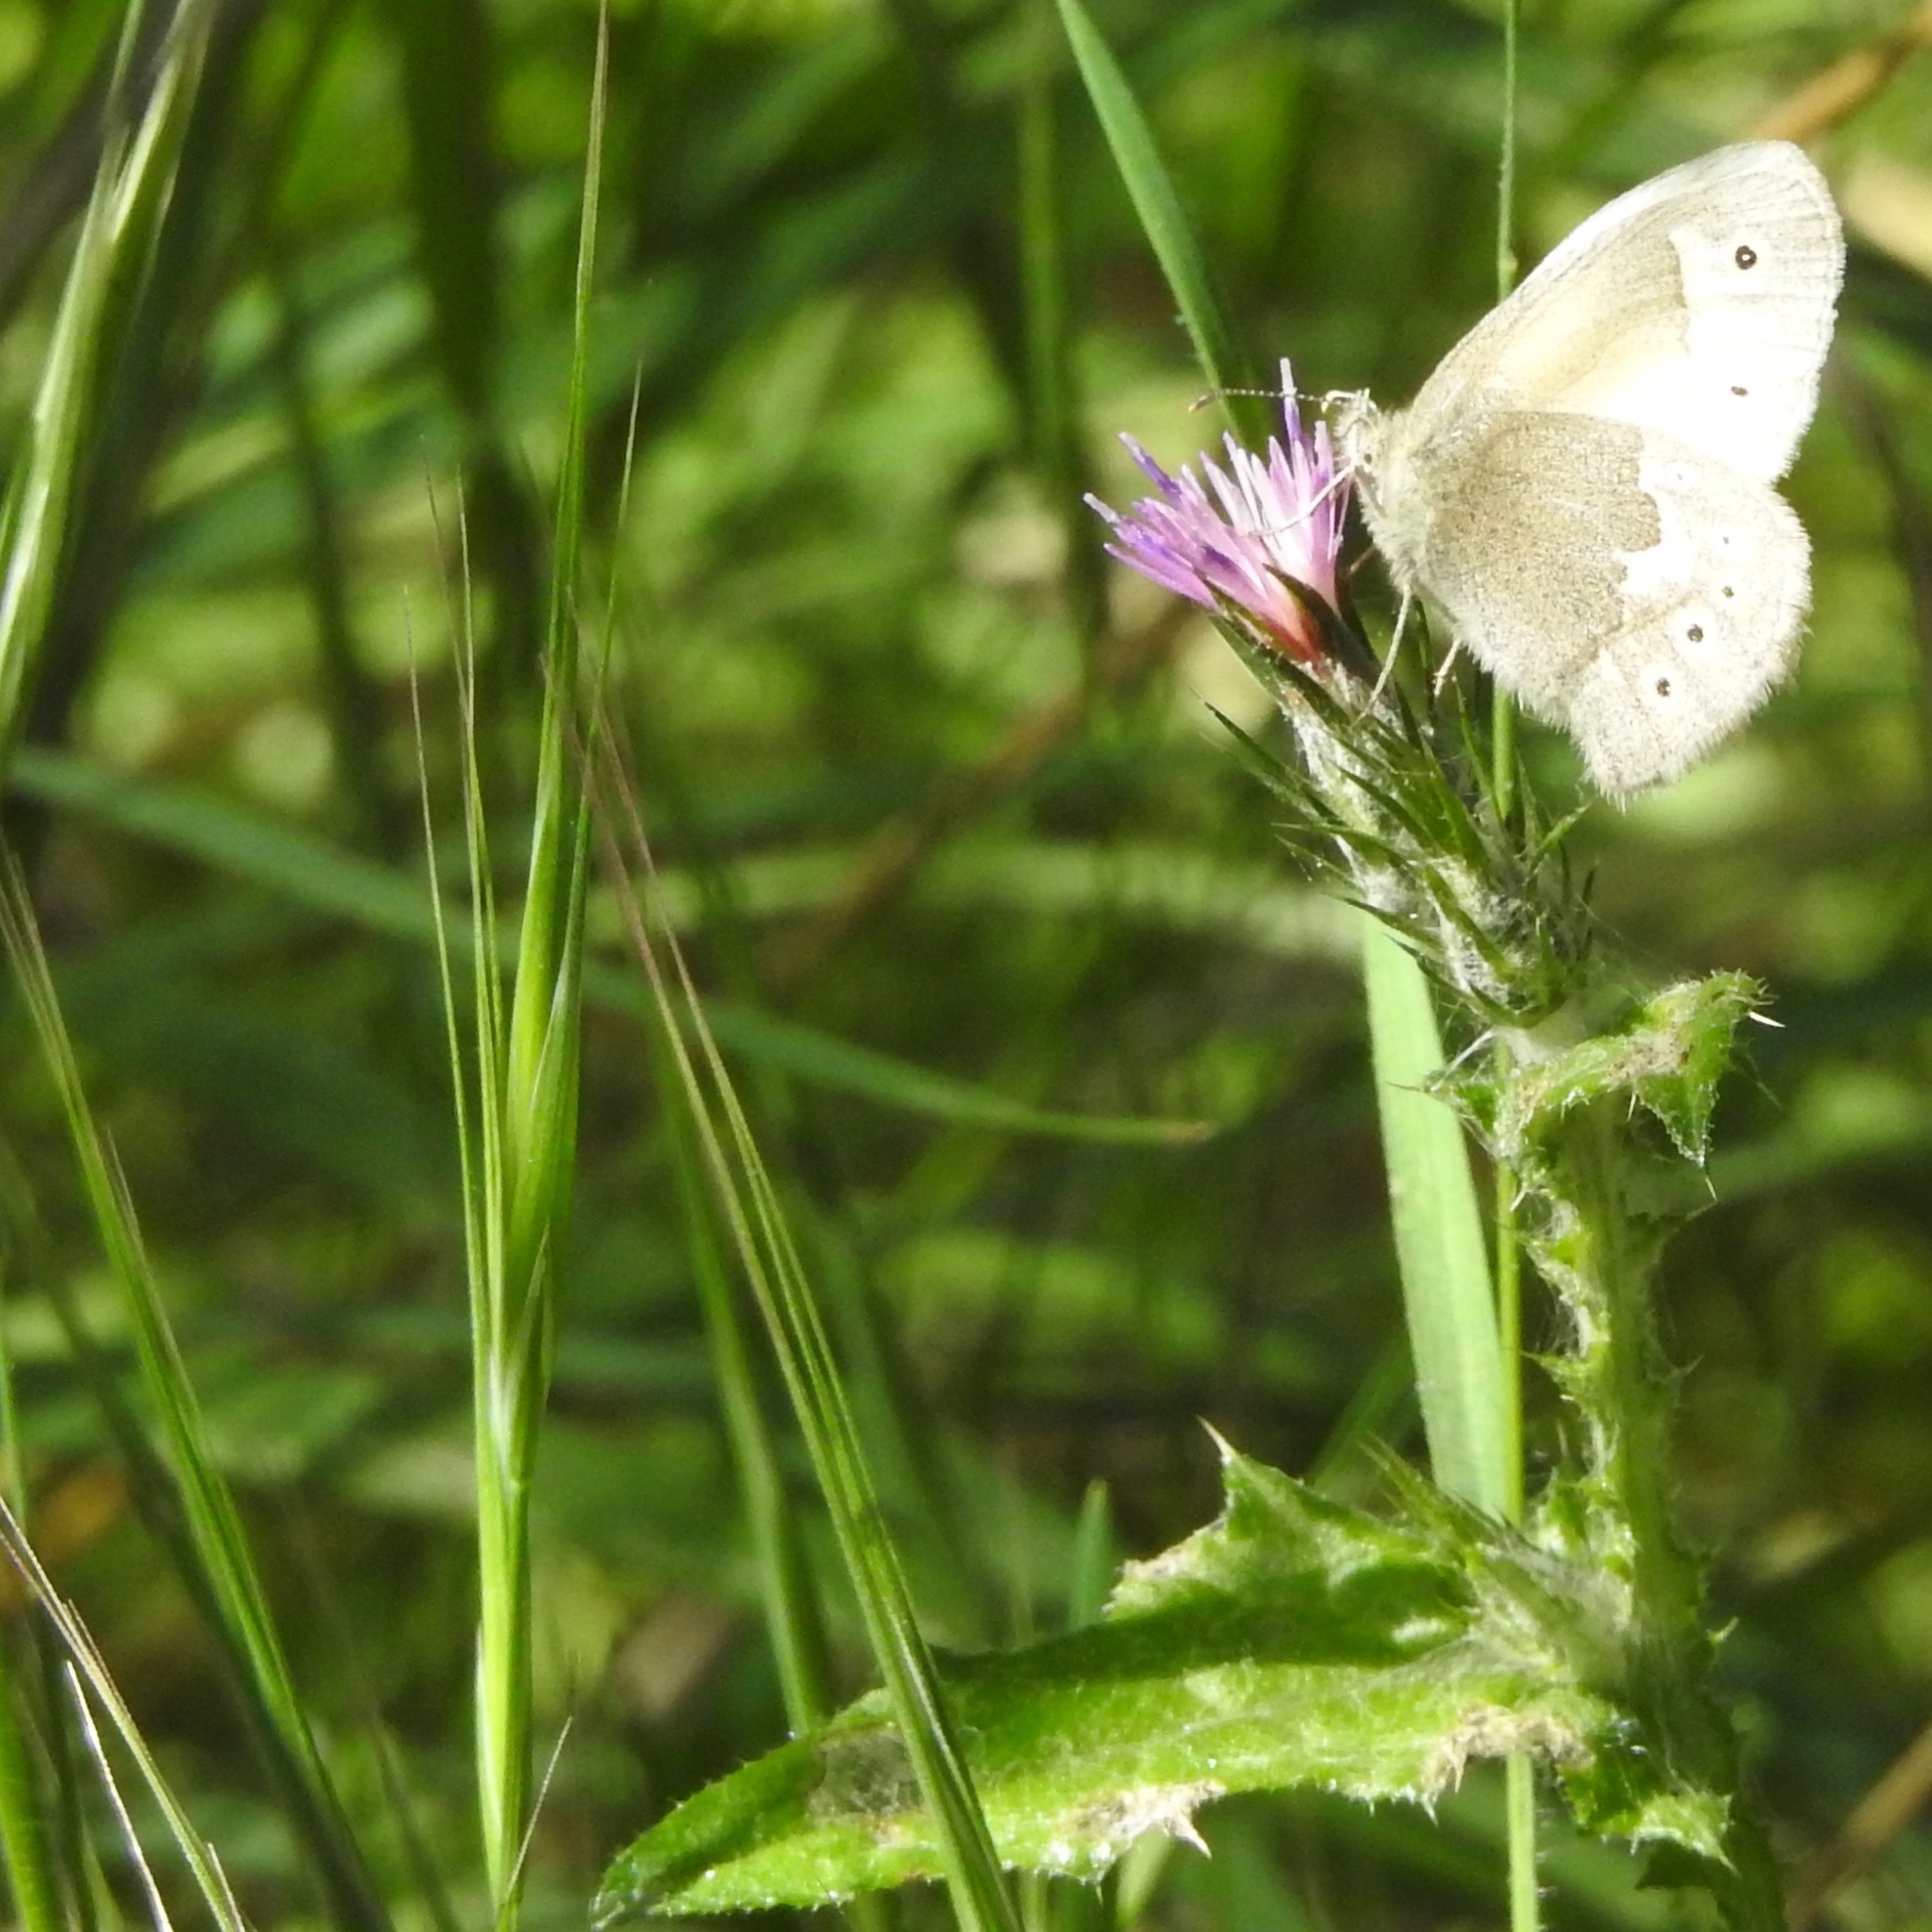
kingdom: Animalia
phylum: Arthropoda
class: Insecta
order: Lepidoptera
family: Nymphalidae
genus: Coenonympha
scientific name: Coenonympha california
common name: Common ringlet
